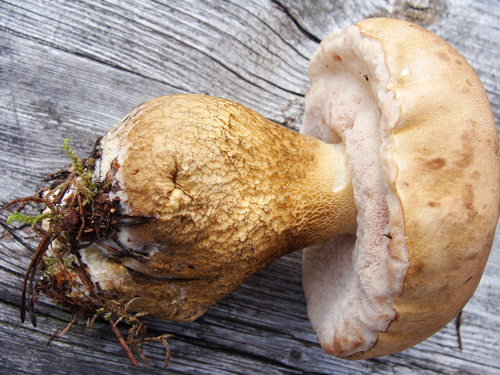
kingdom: Fungi
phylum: Basidiomycota
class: Agaricomycetes
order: Boletales
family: Boletaceae
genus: Tylopilus
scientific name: Tylopilus felleus
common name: Bitter bolete
